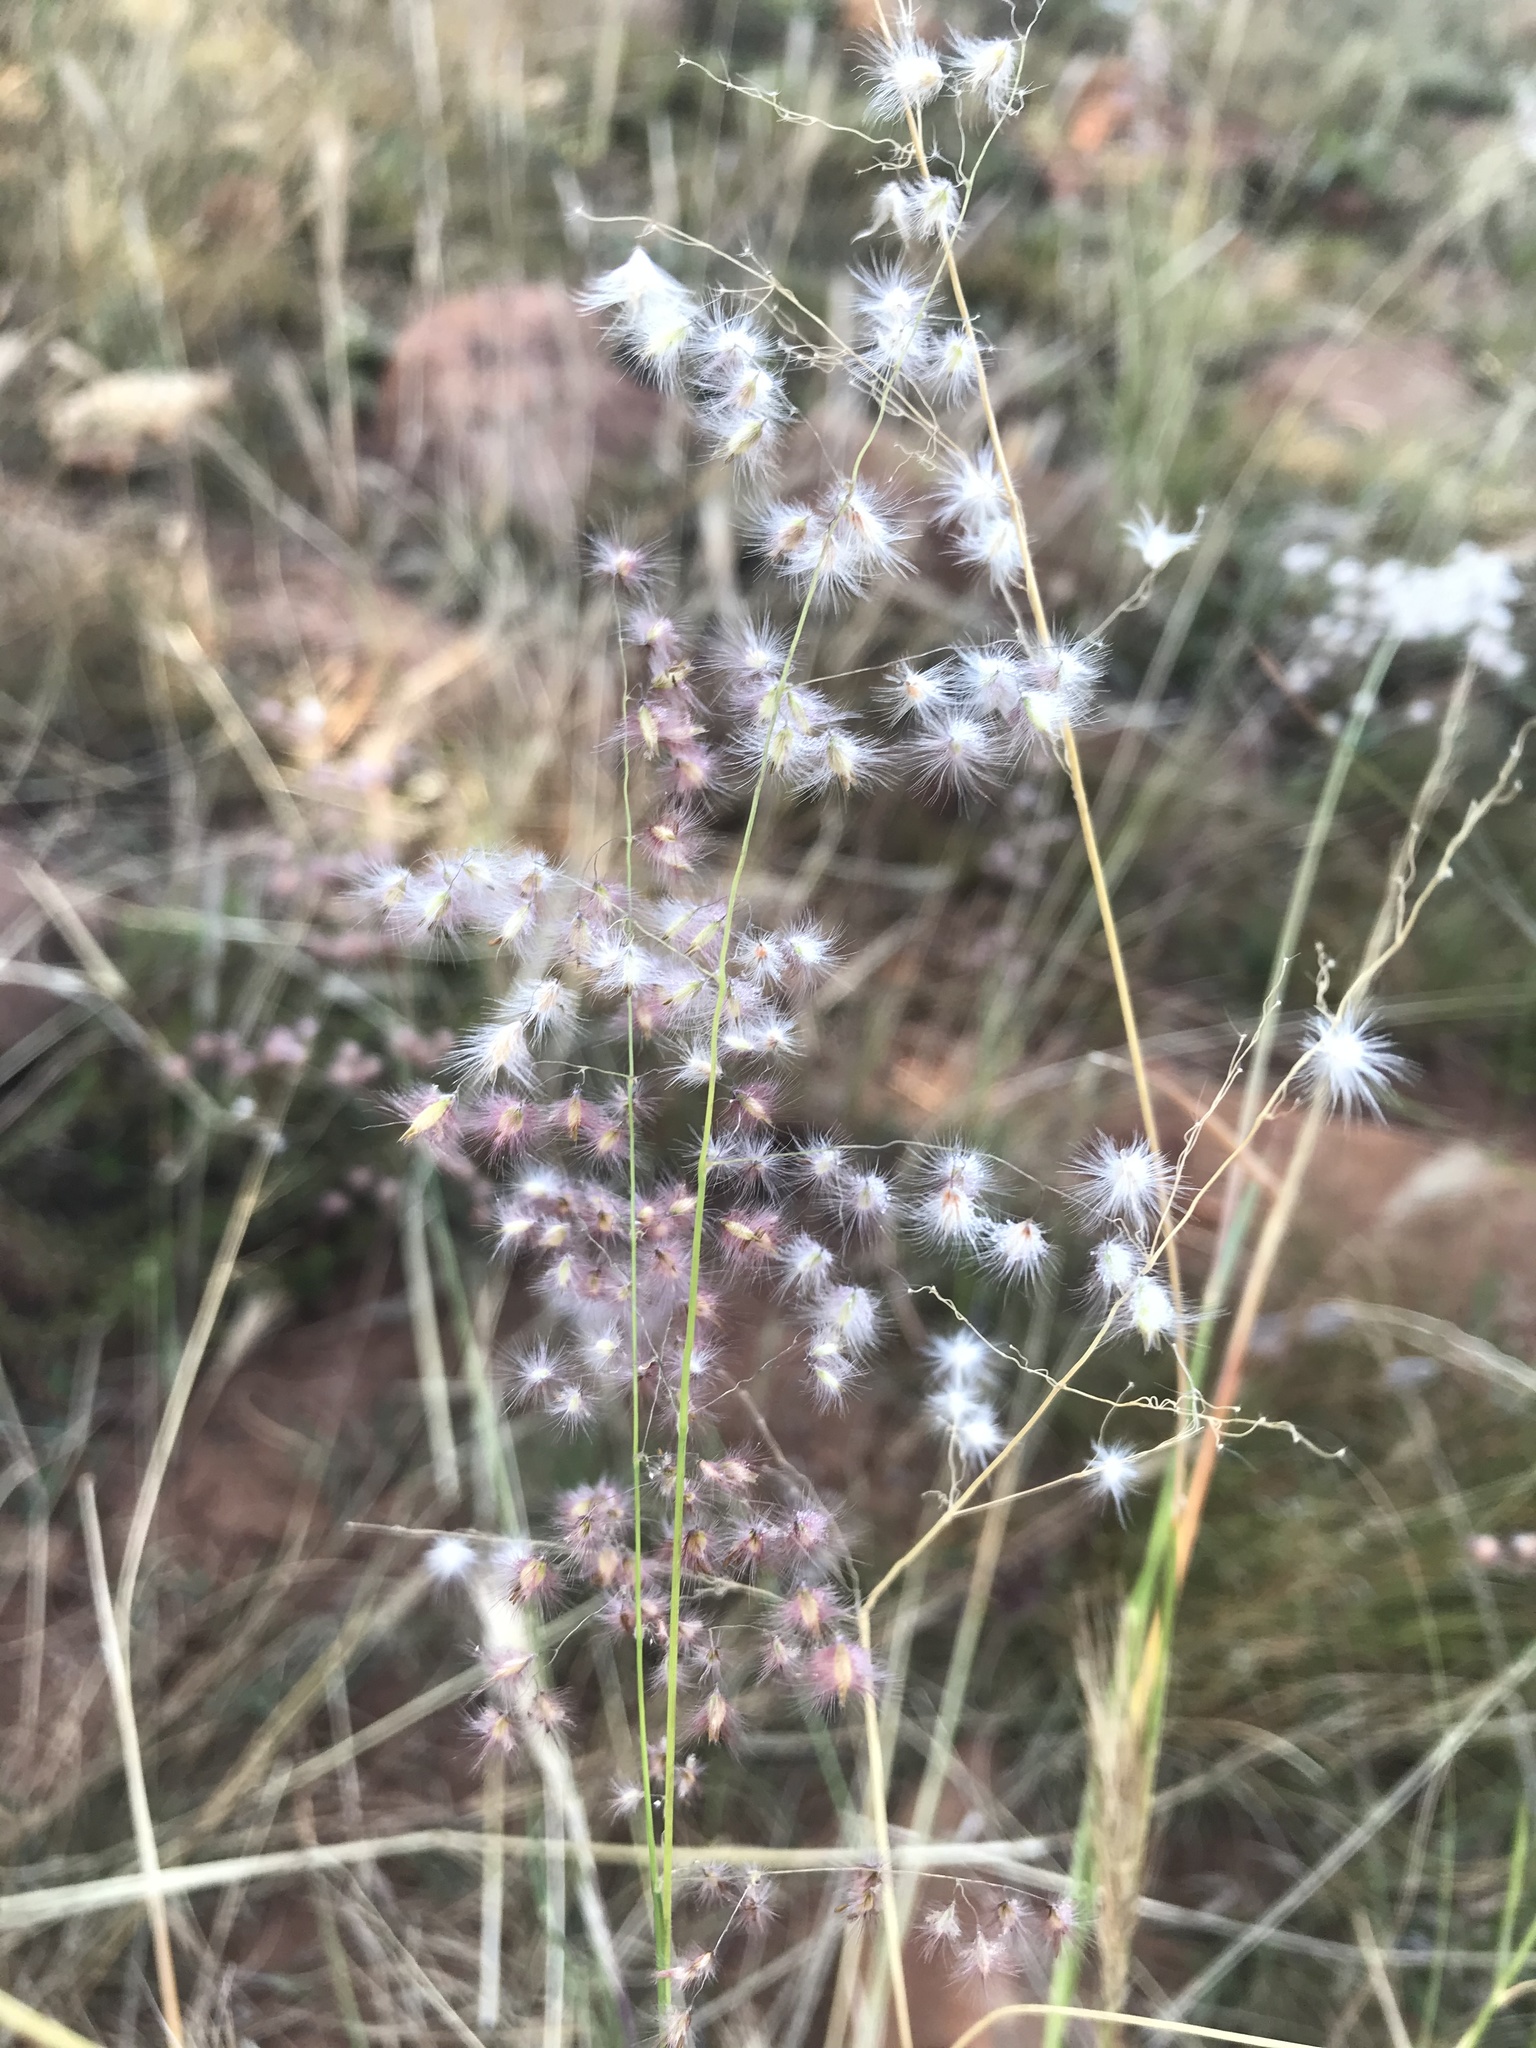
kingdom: Plantae
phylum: Tracheophyta
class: Liliopsida
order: Poales
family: Poaceae
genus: Melinis
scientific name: Melinis repens
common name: Rose natal grass
